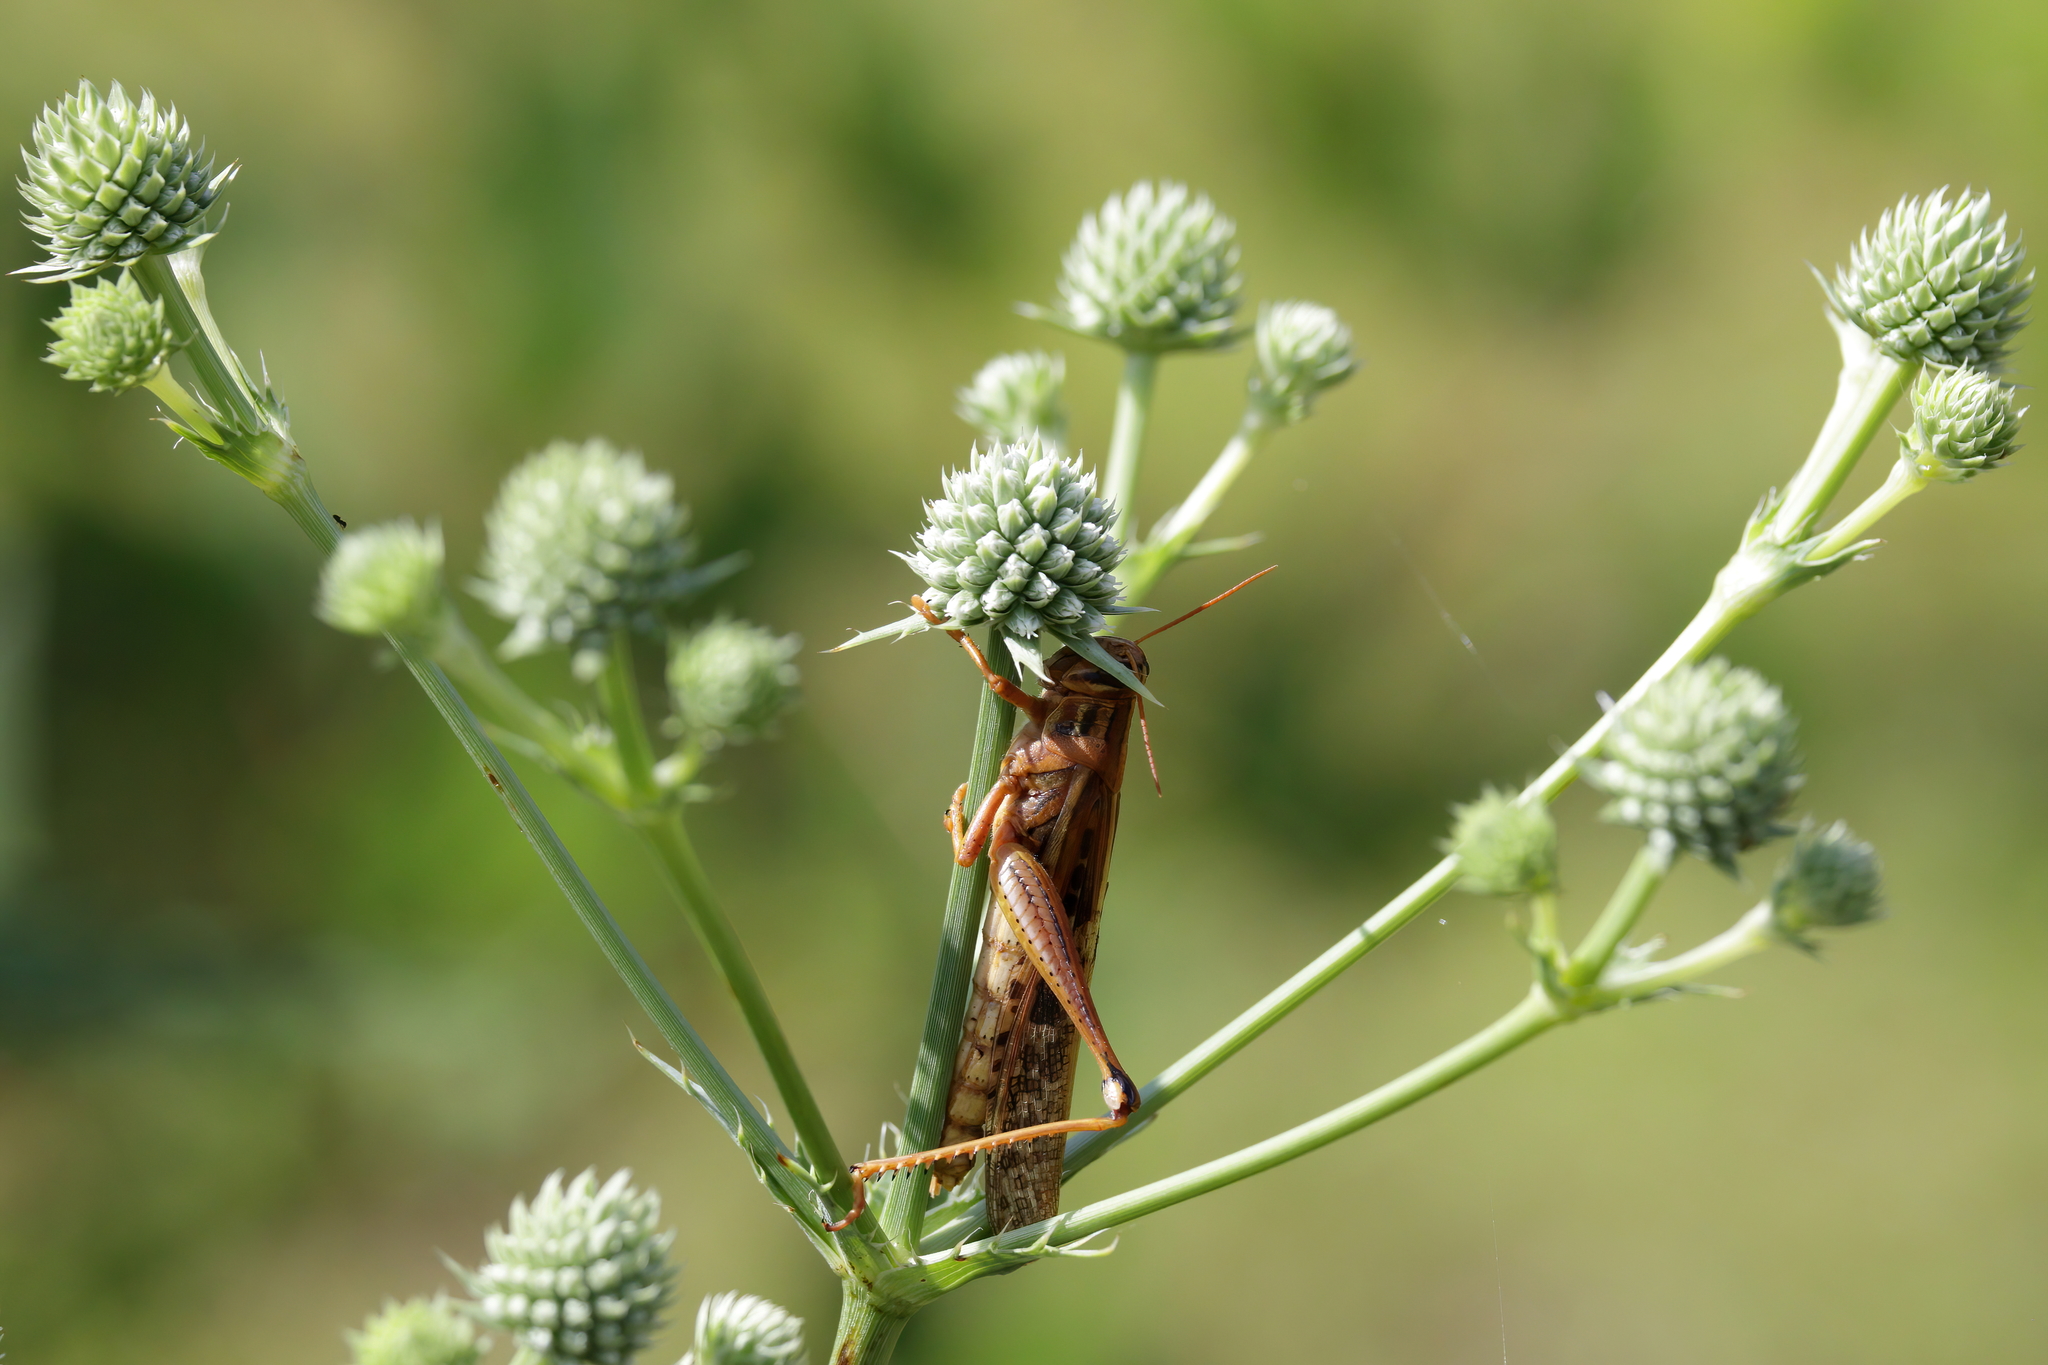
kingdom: Animalia
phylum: Arthropoda
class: Insecta
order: Orthoptera
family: Acrididae
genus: Schistocerca
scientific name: Schistocerca americana
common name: American bird locust
